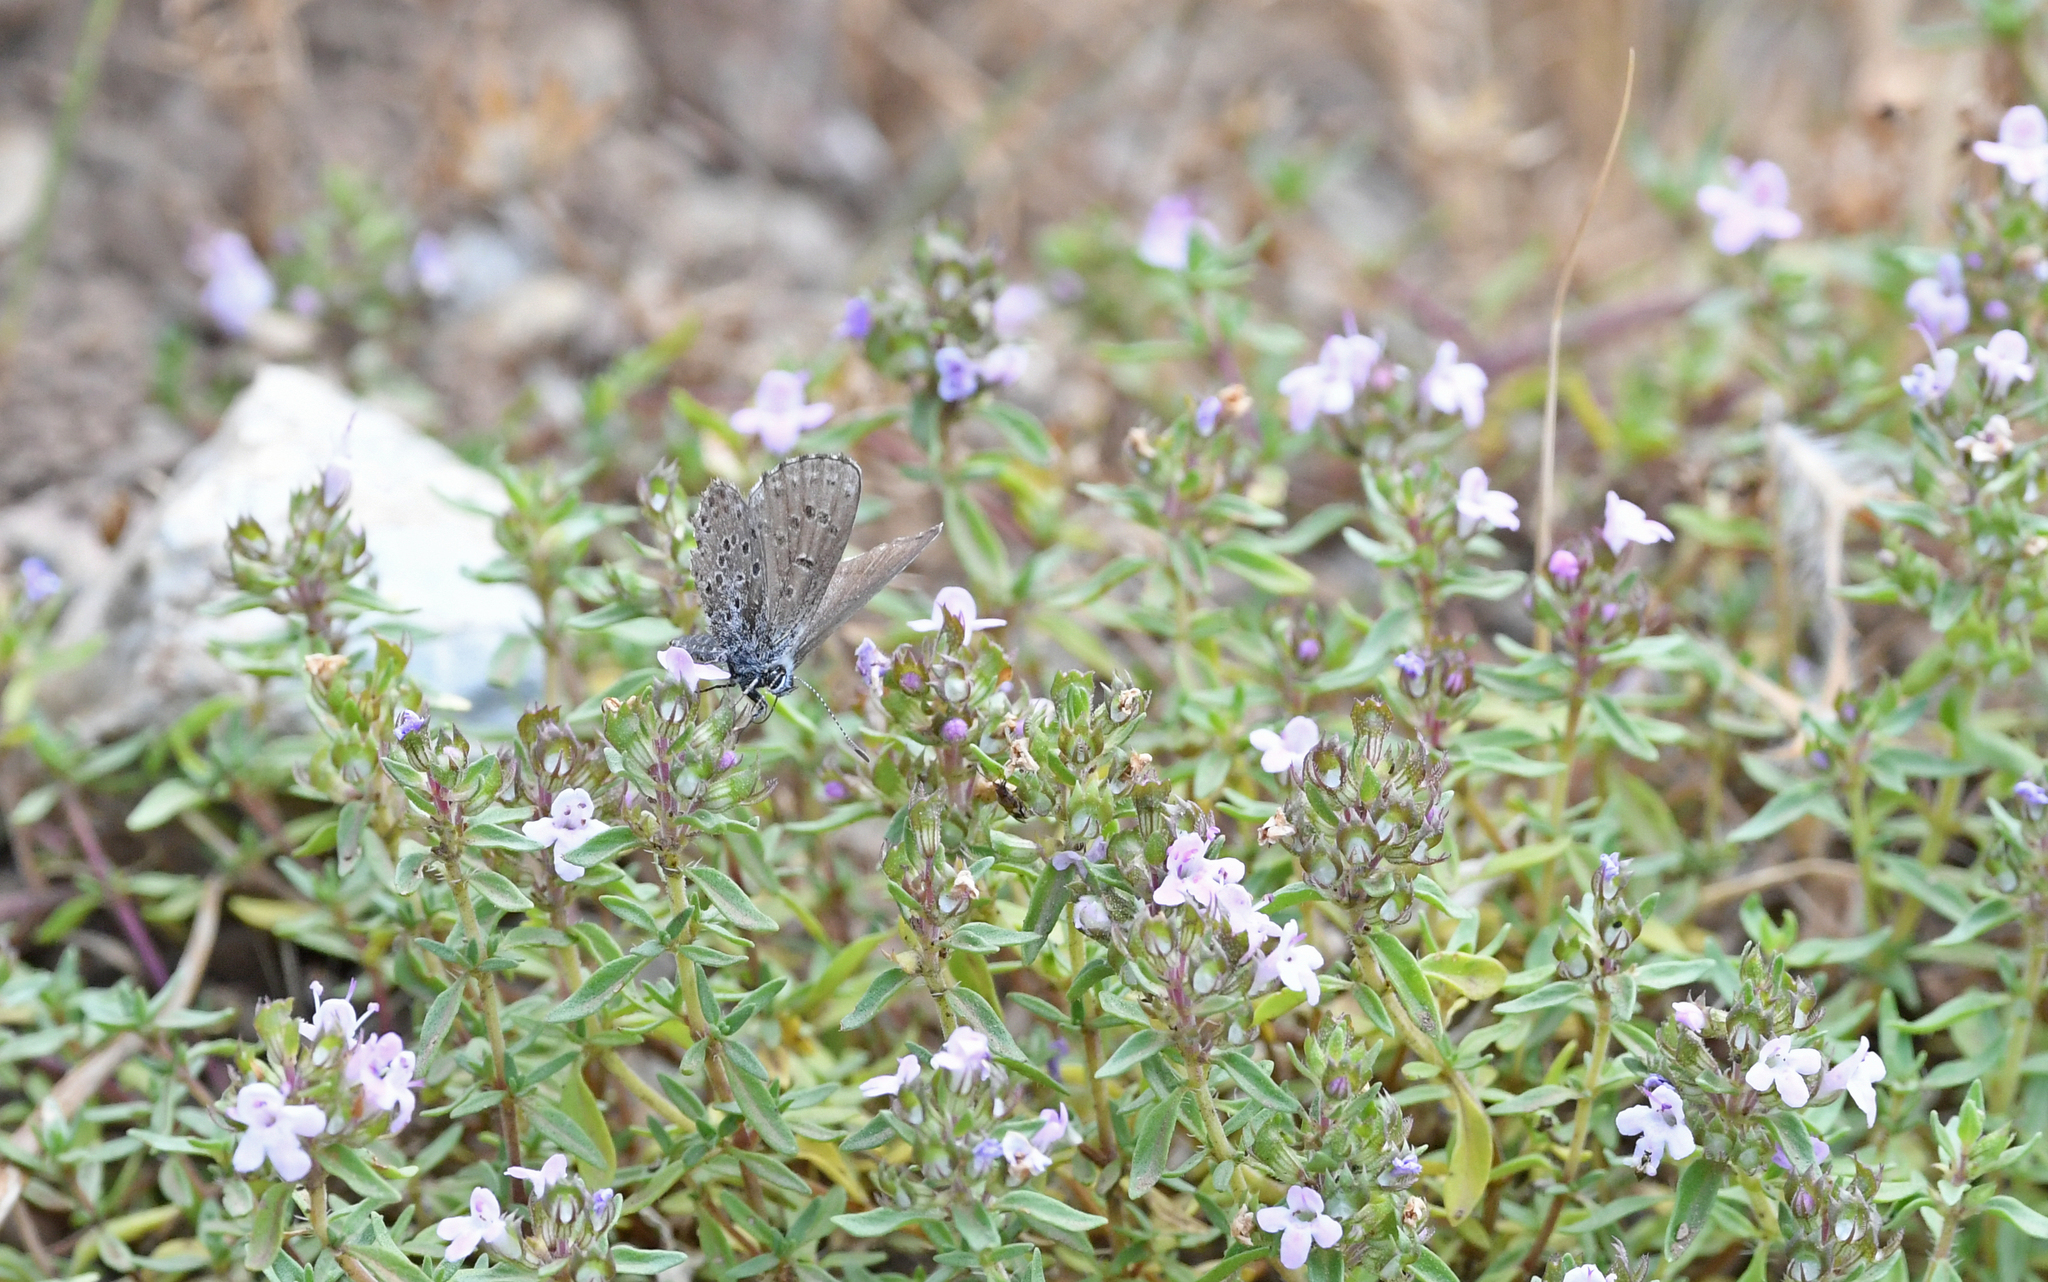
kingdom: Animalia
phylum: Arthropoda
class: Insecta
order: Lepidoptera
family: Lycaenidae
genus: Pseudophilotes
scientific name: Pseudophilotes barbagiae
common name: Sardinian blue
